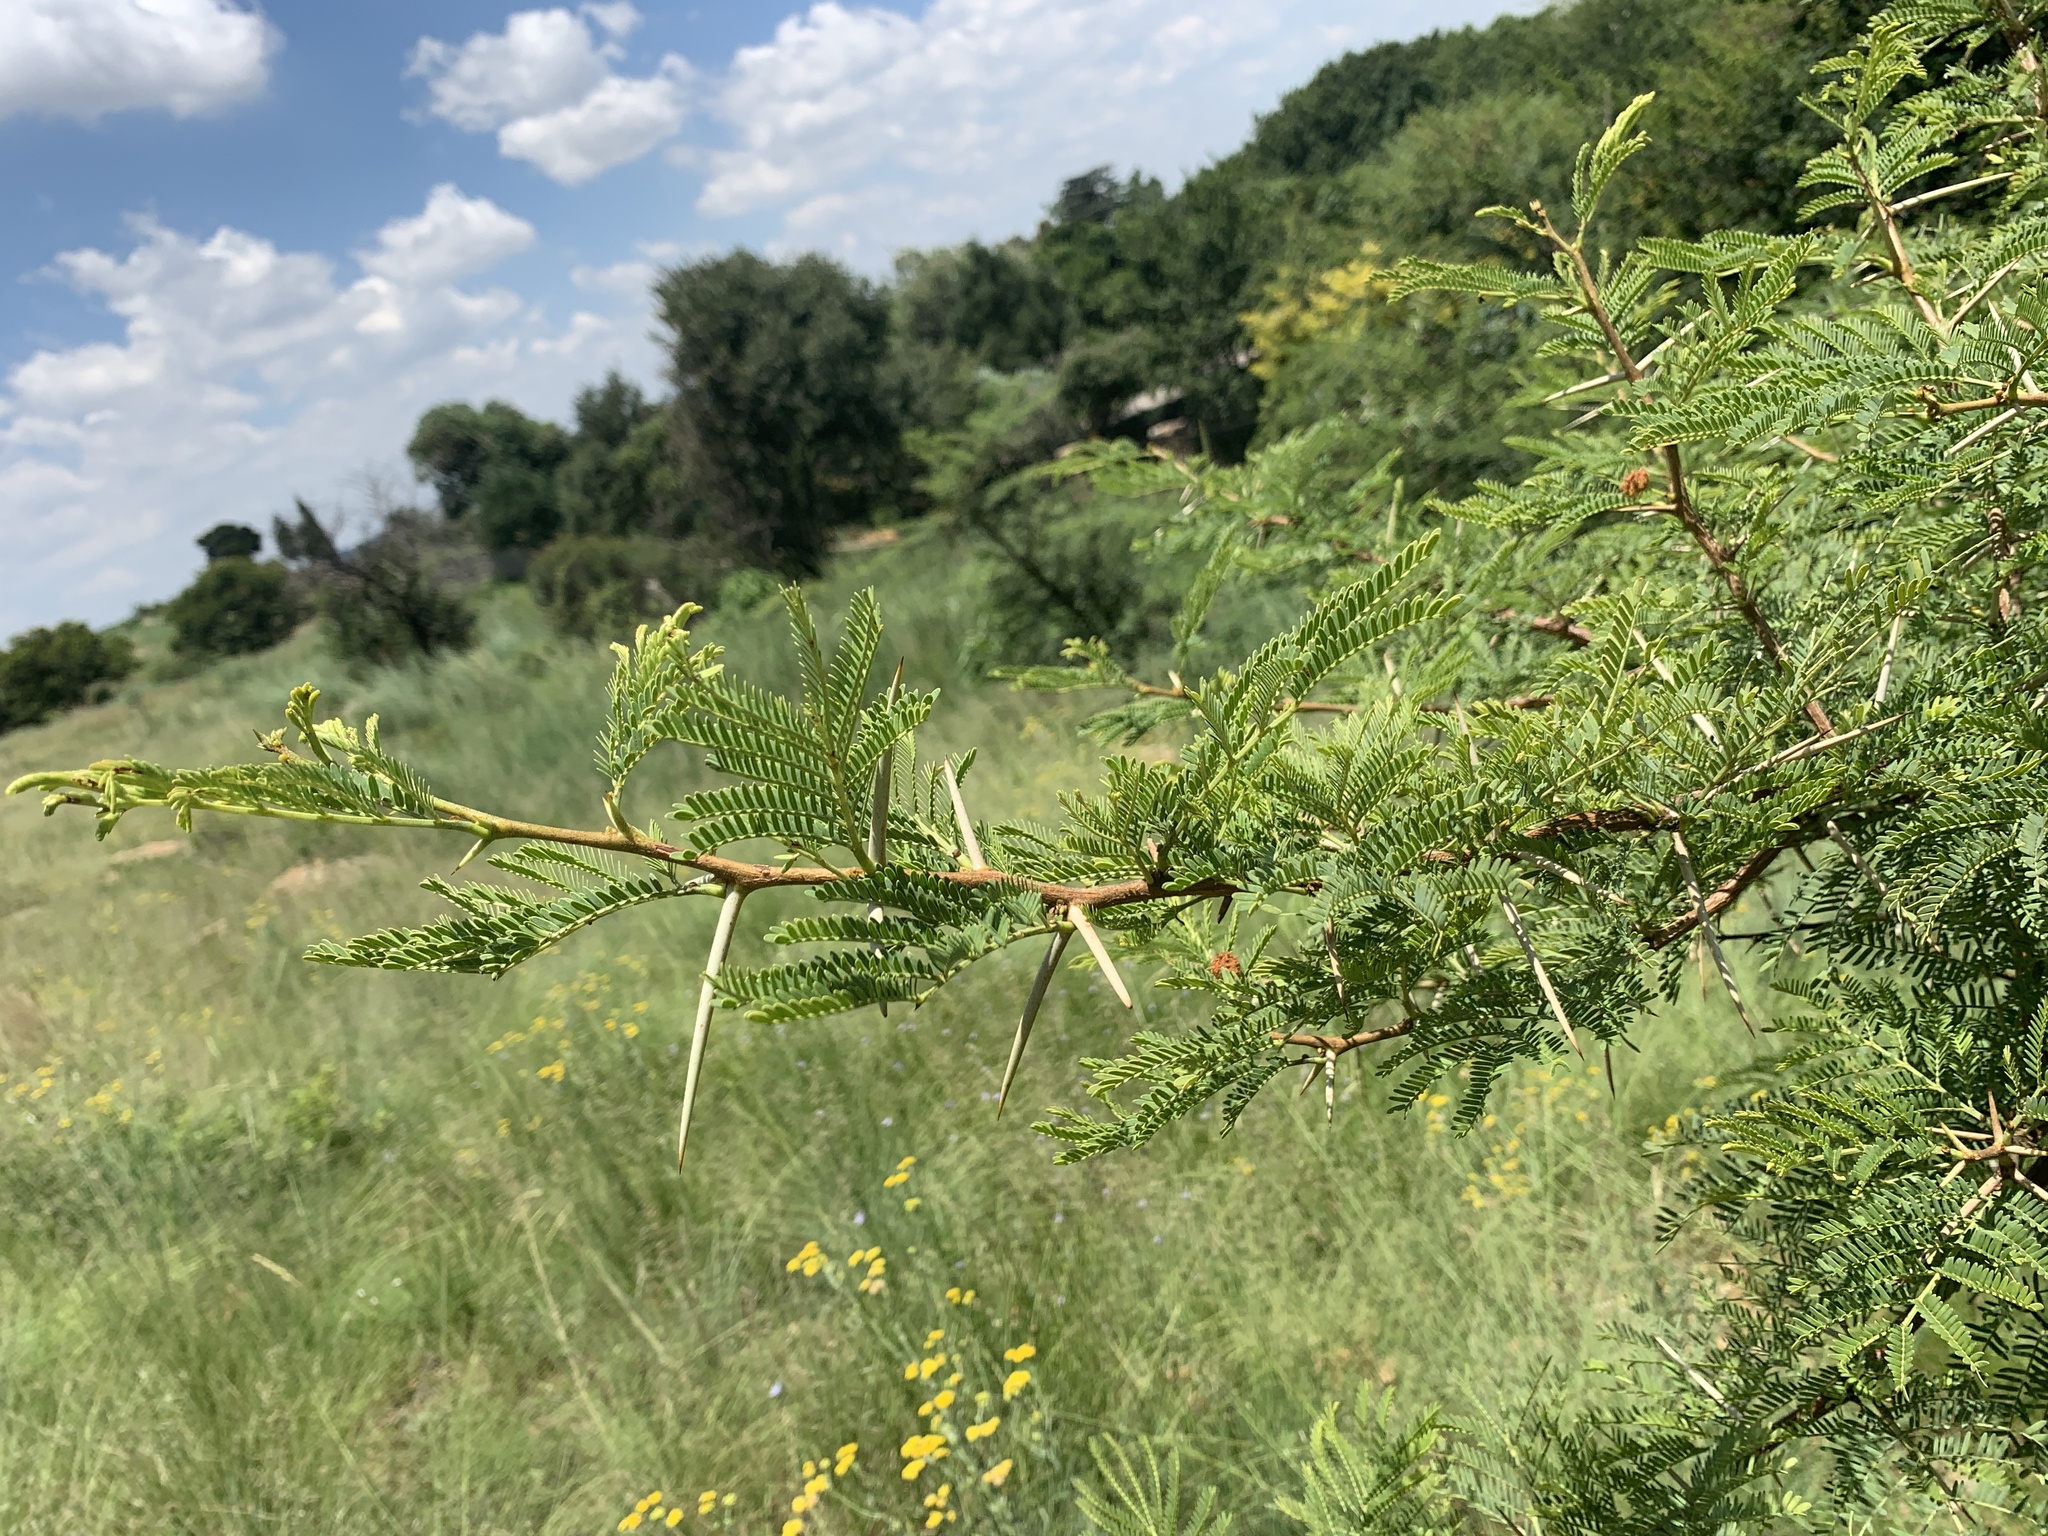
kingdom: Plantae
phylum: Tracheophyta
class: Magnoliopsida
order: Fabales
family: Fabaceae
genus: Vachellia
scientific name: Vachellia karroo
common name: Sweet thorn
